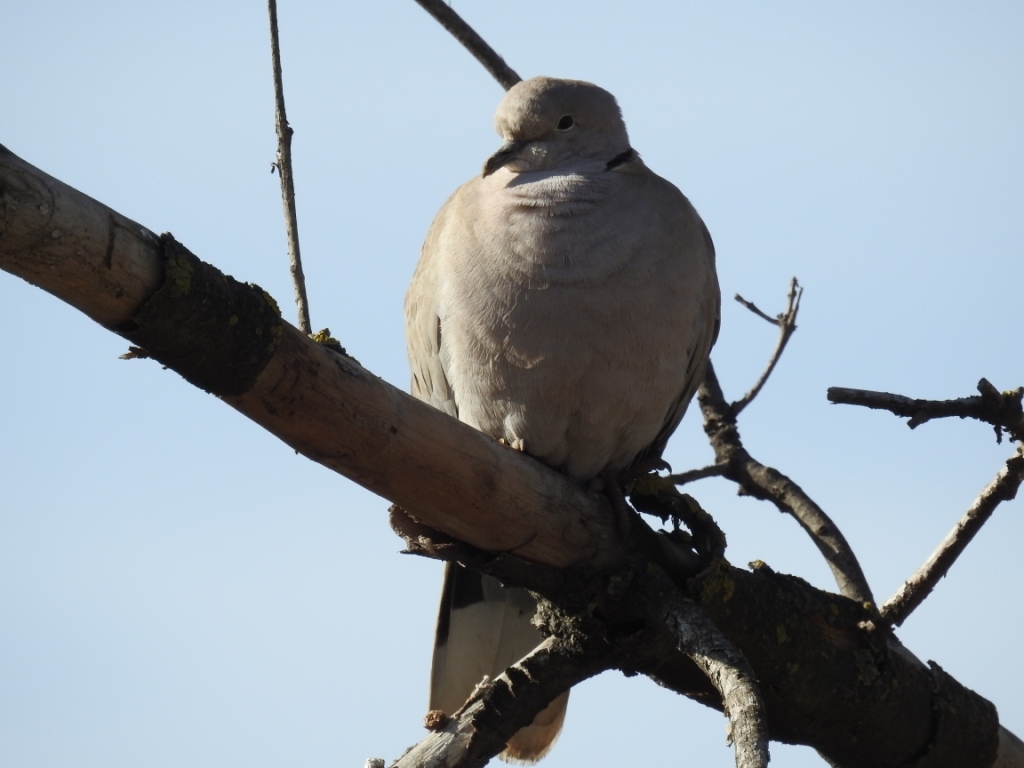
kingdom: Animalia
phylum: Chordata
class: Aves
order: Columbiformes
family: Columbidae
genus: Streptopelia
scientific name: Streptopelia decaocto
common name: Eurasian collared dove
